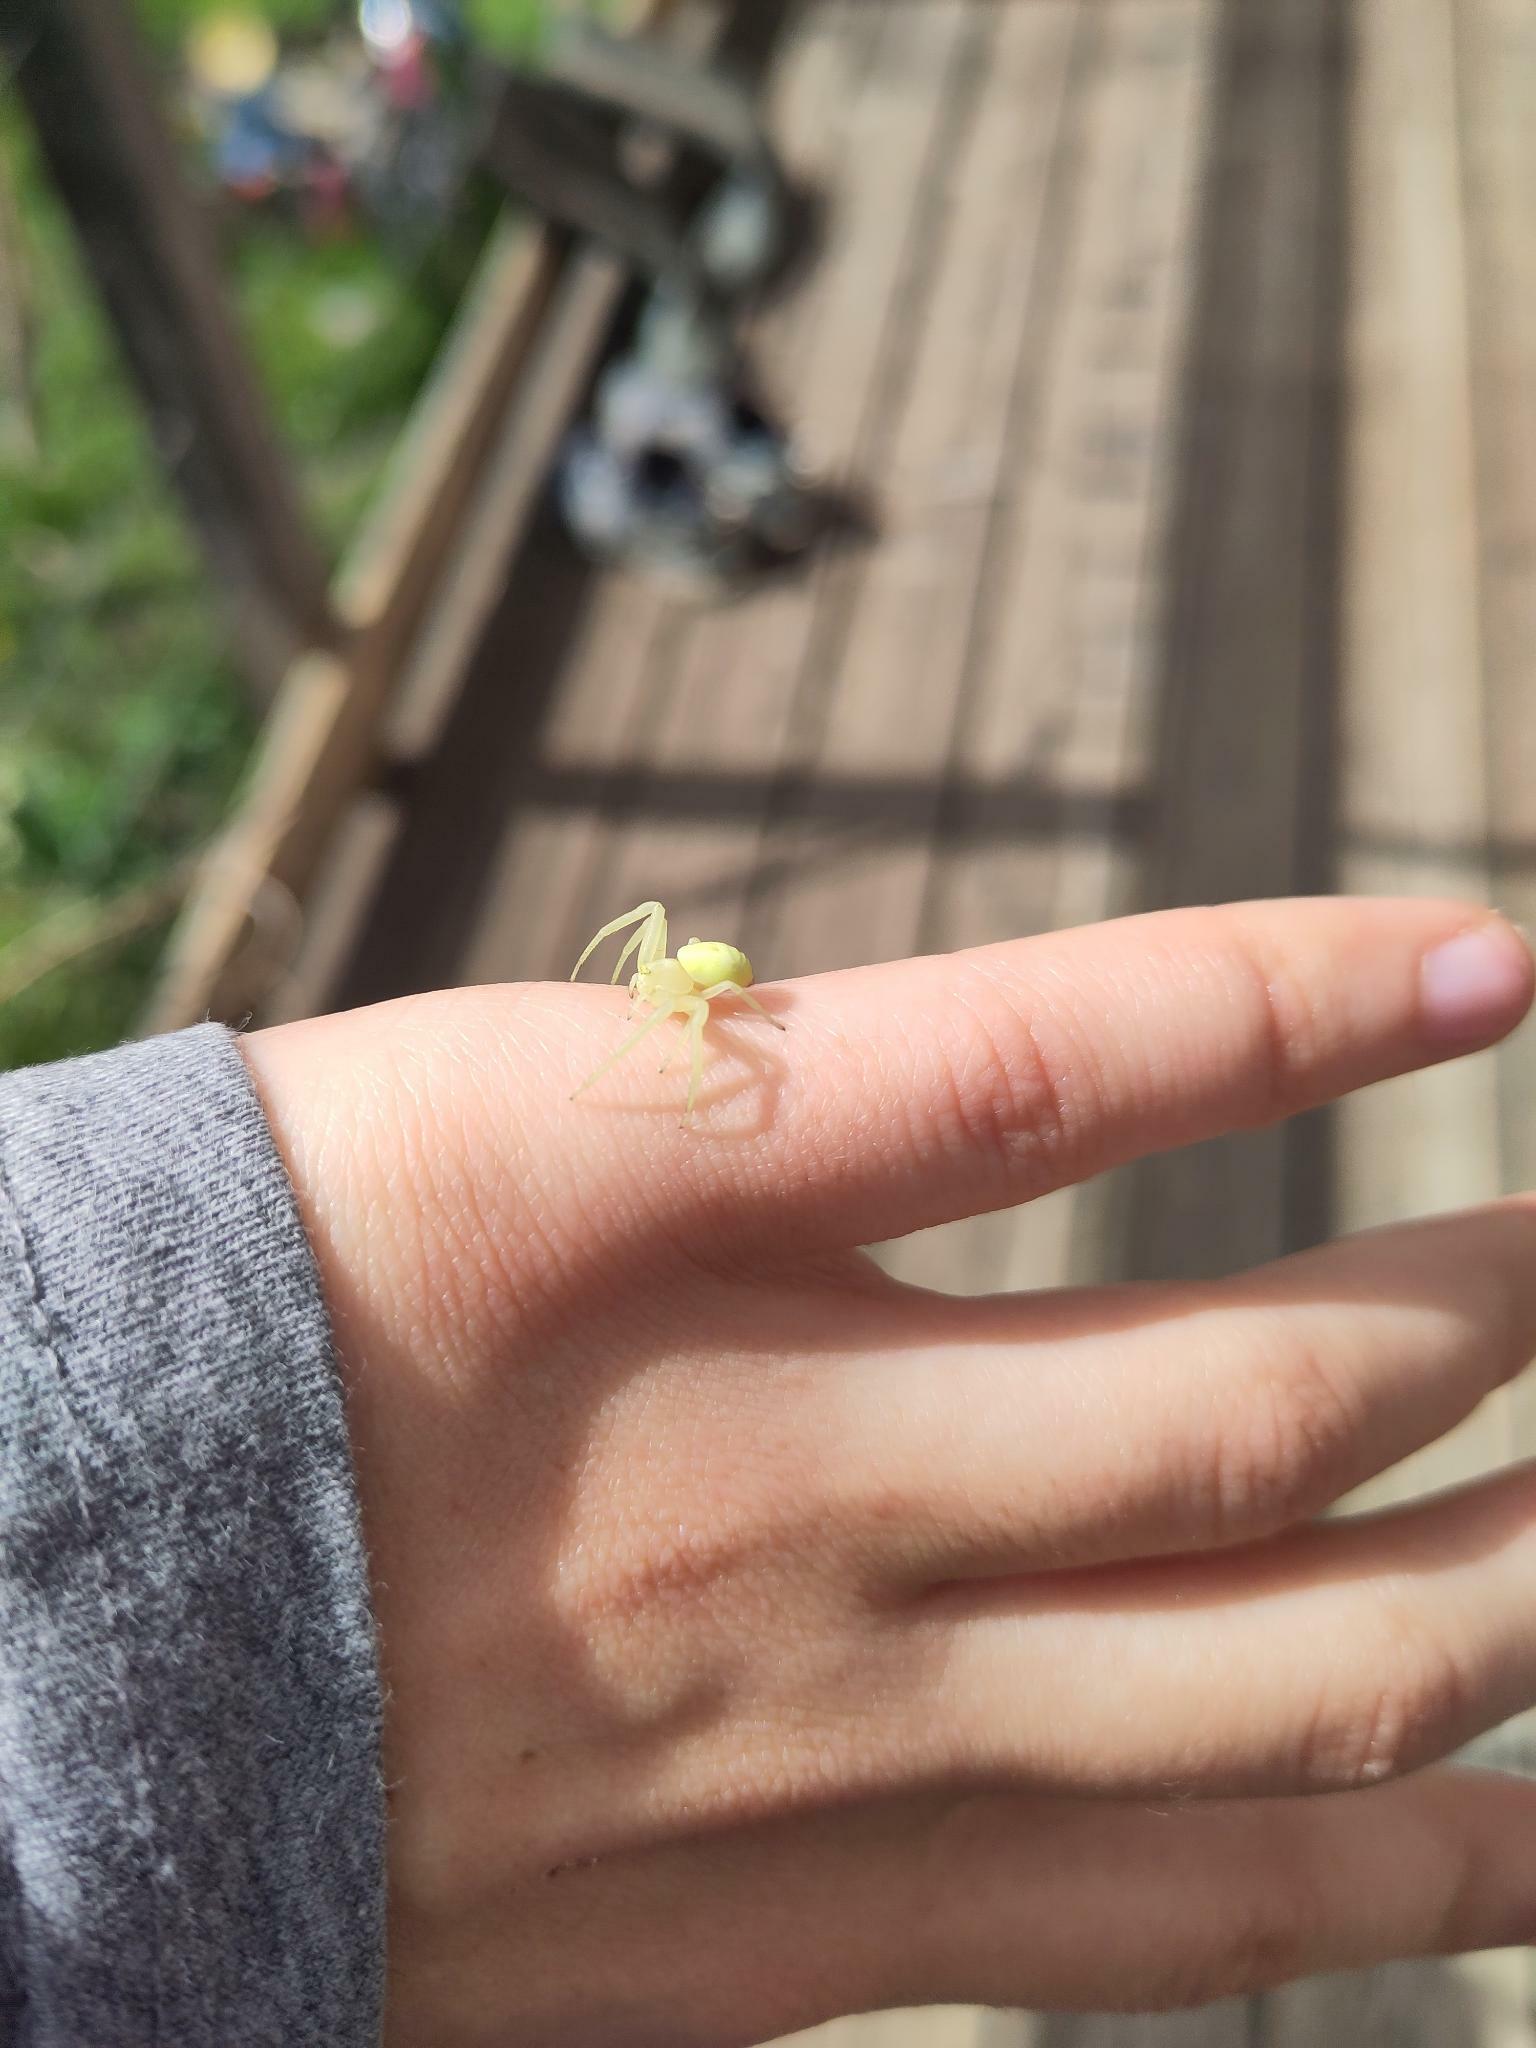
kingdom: Animalia
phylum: Arthropoda
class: Arachnida
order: Araneae
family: Thomisidae
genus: Misumena
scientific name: Misumena vatia
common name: Goldenrod crab spider
